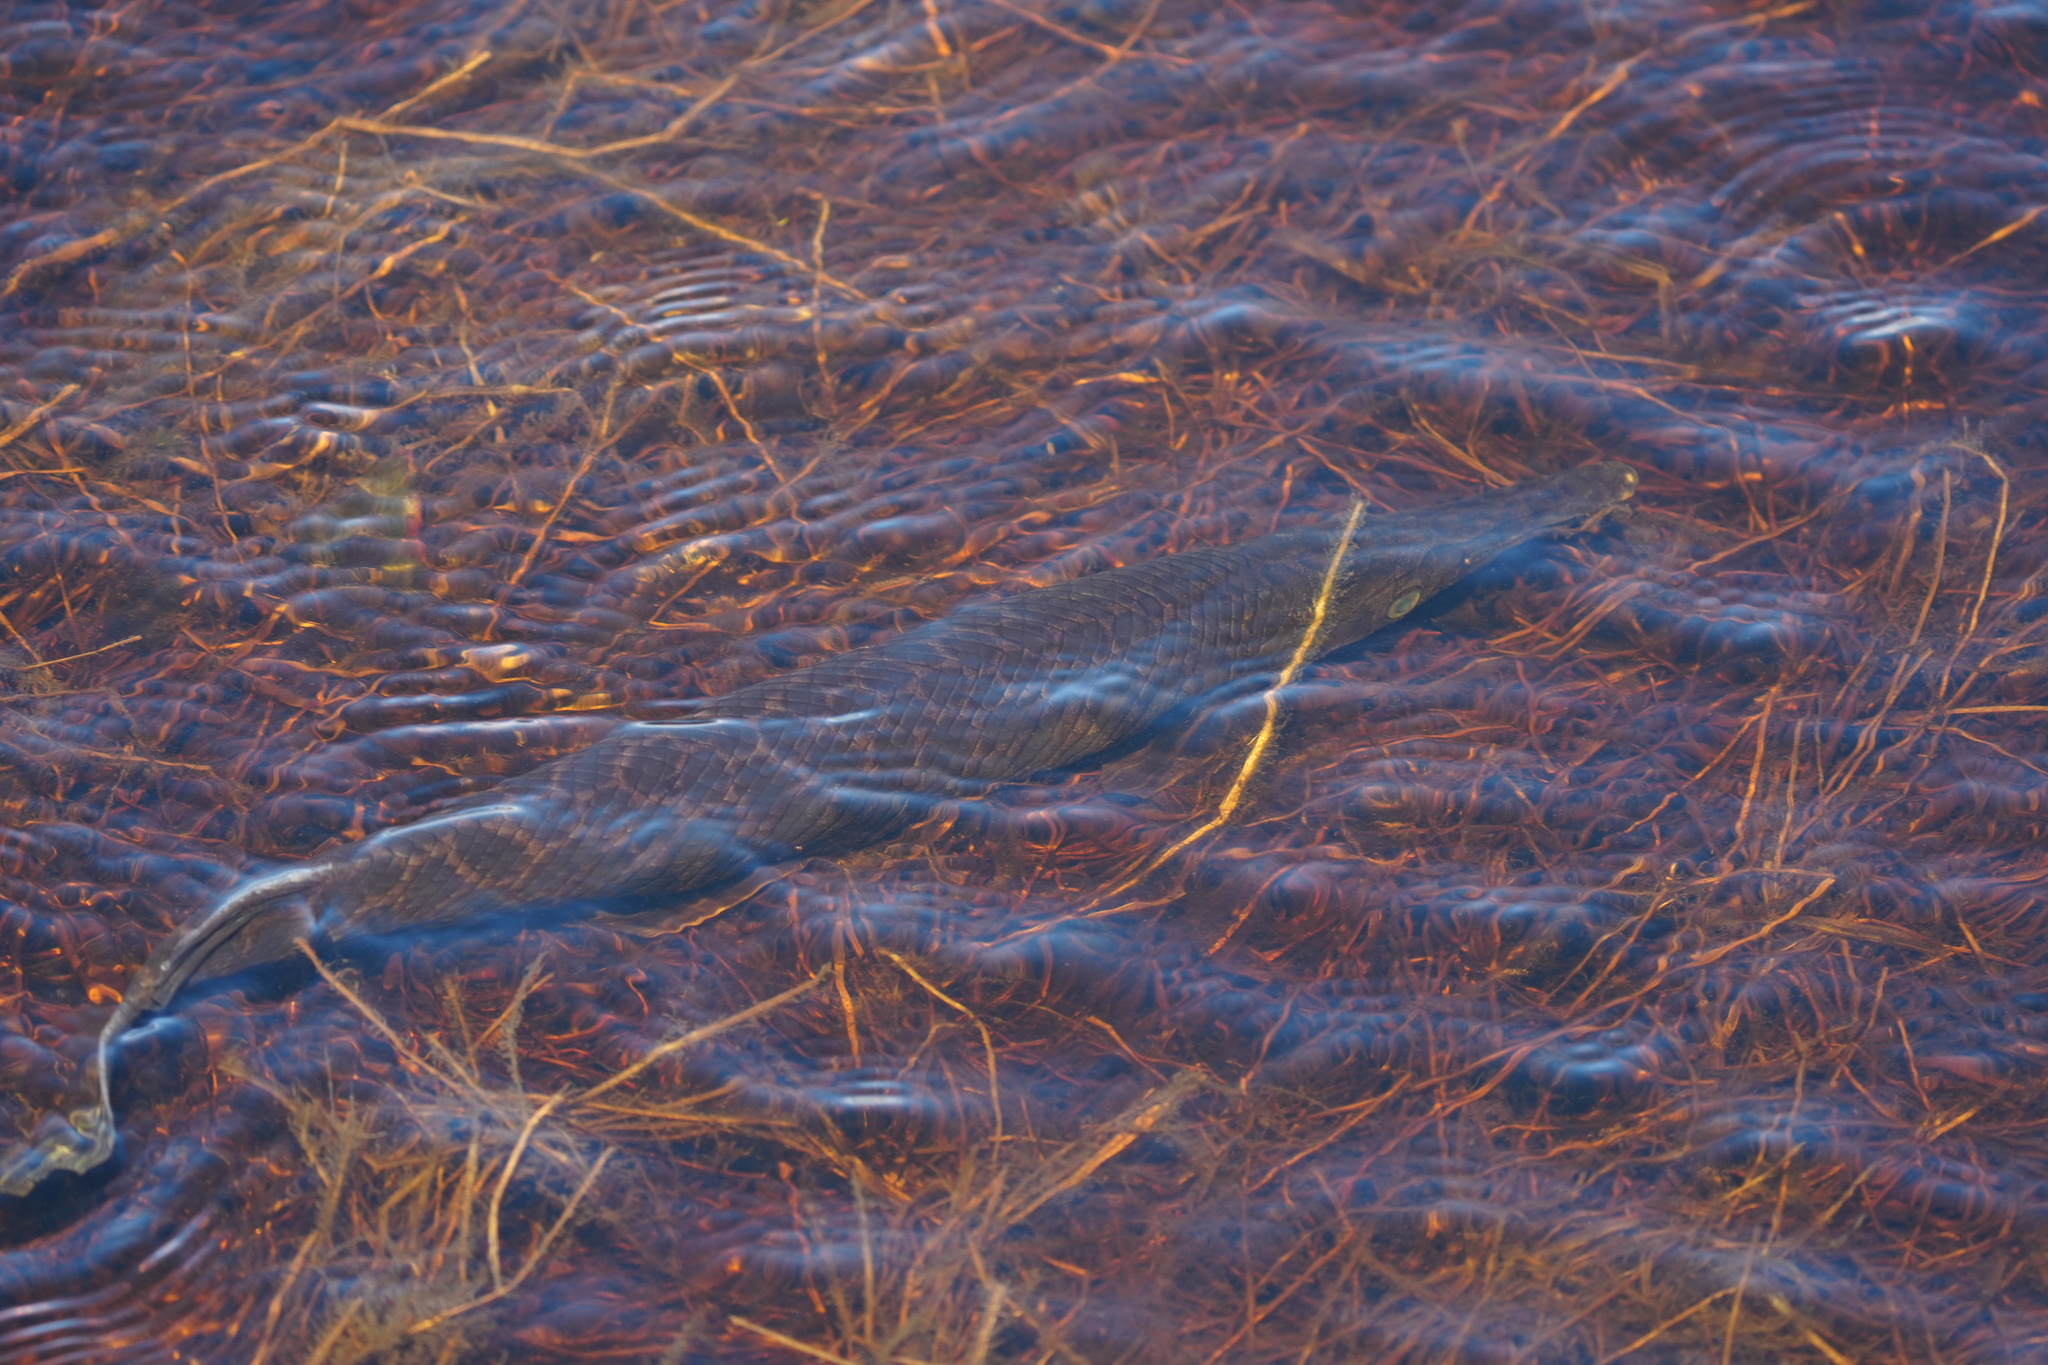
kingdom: Animalia
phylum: Chordata
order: Lepisosteiformes
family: Lepisosteidae
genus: Lepisosteus
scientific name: Lepisosteus oculatus
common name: Spotted gar
